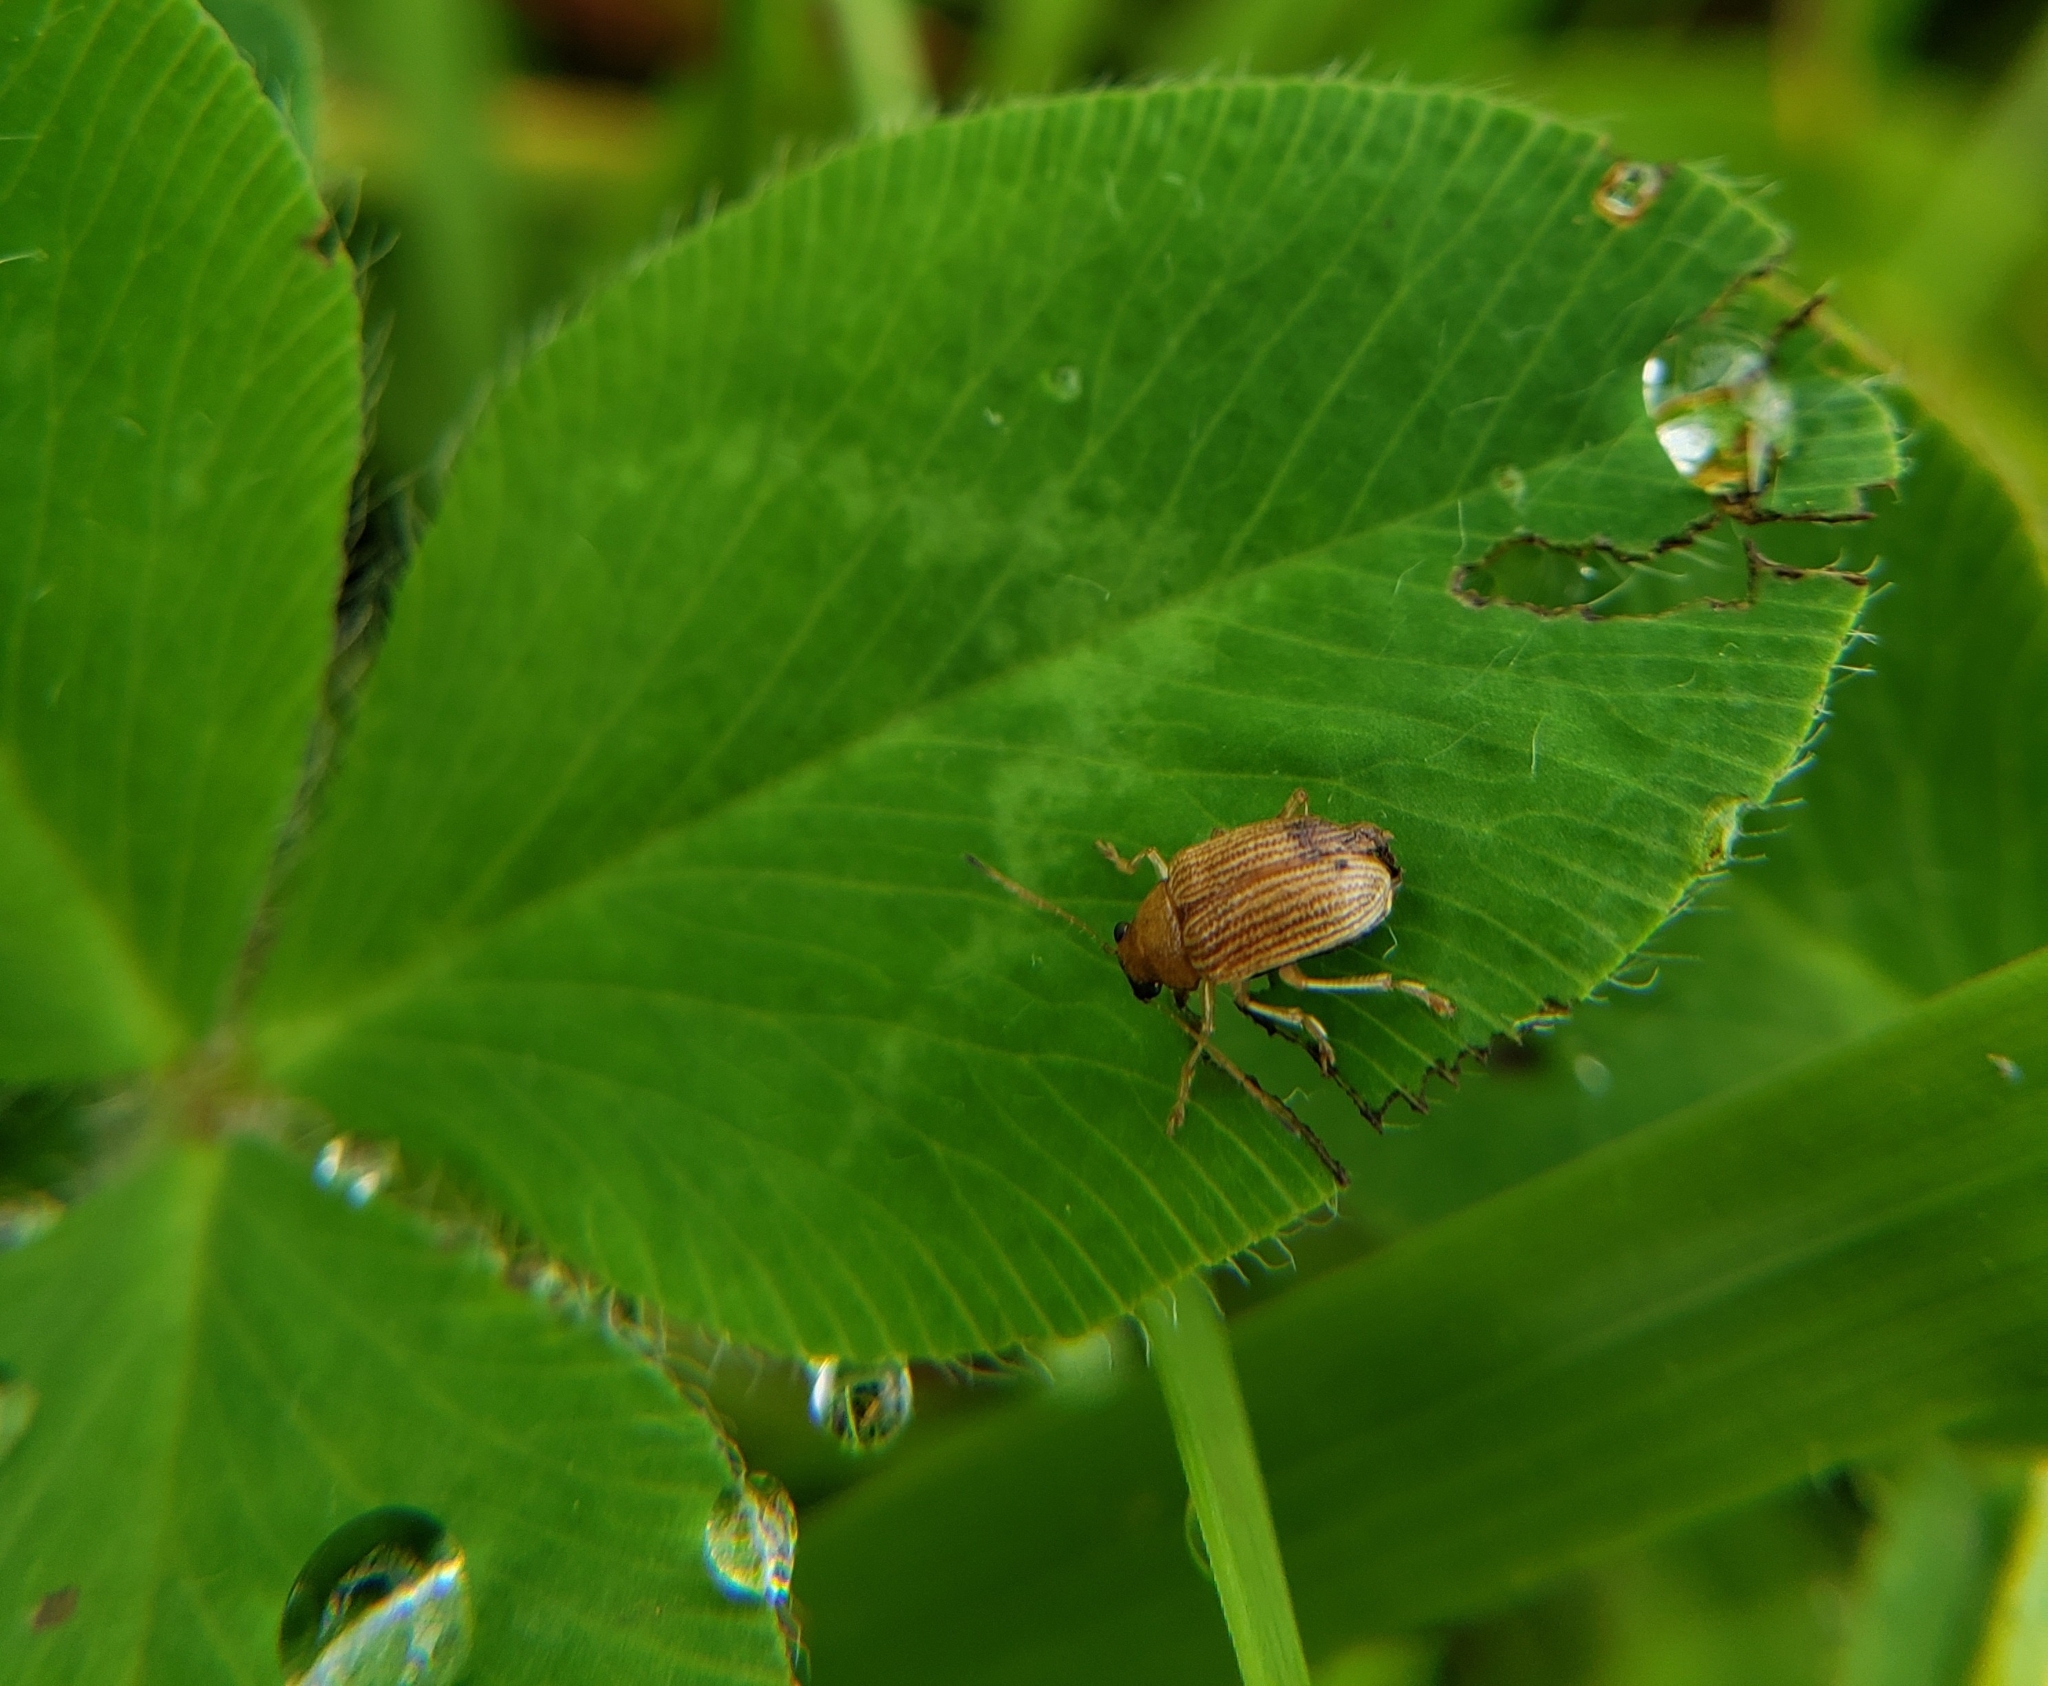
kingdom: Animalia
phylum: Arthropoda
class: Insecta
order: Coleoptera
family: Chrysomelidae
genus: Colaspis
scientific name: Colaspis brunnea
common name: Grape colaspis
